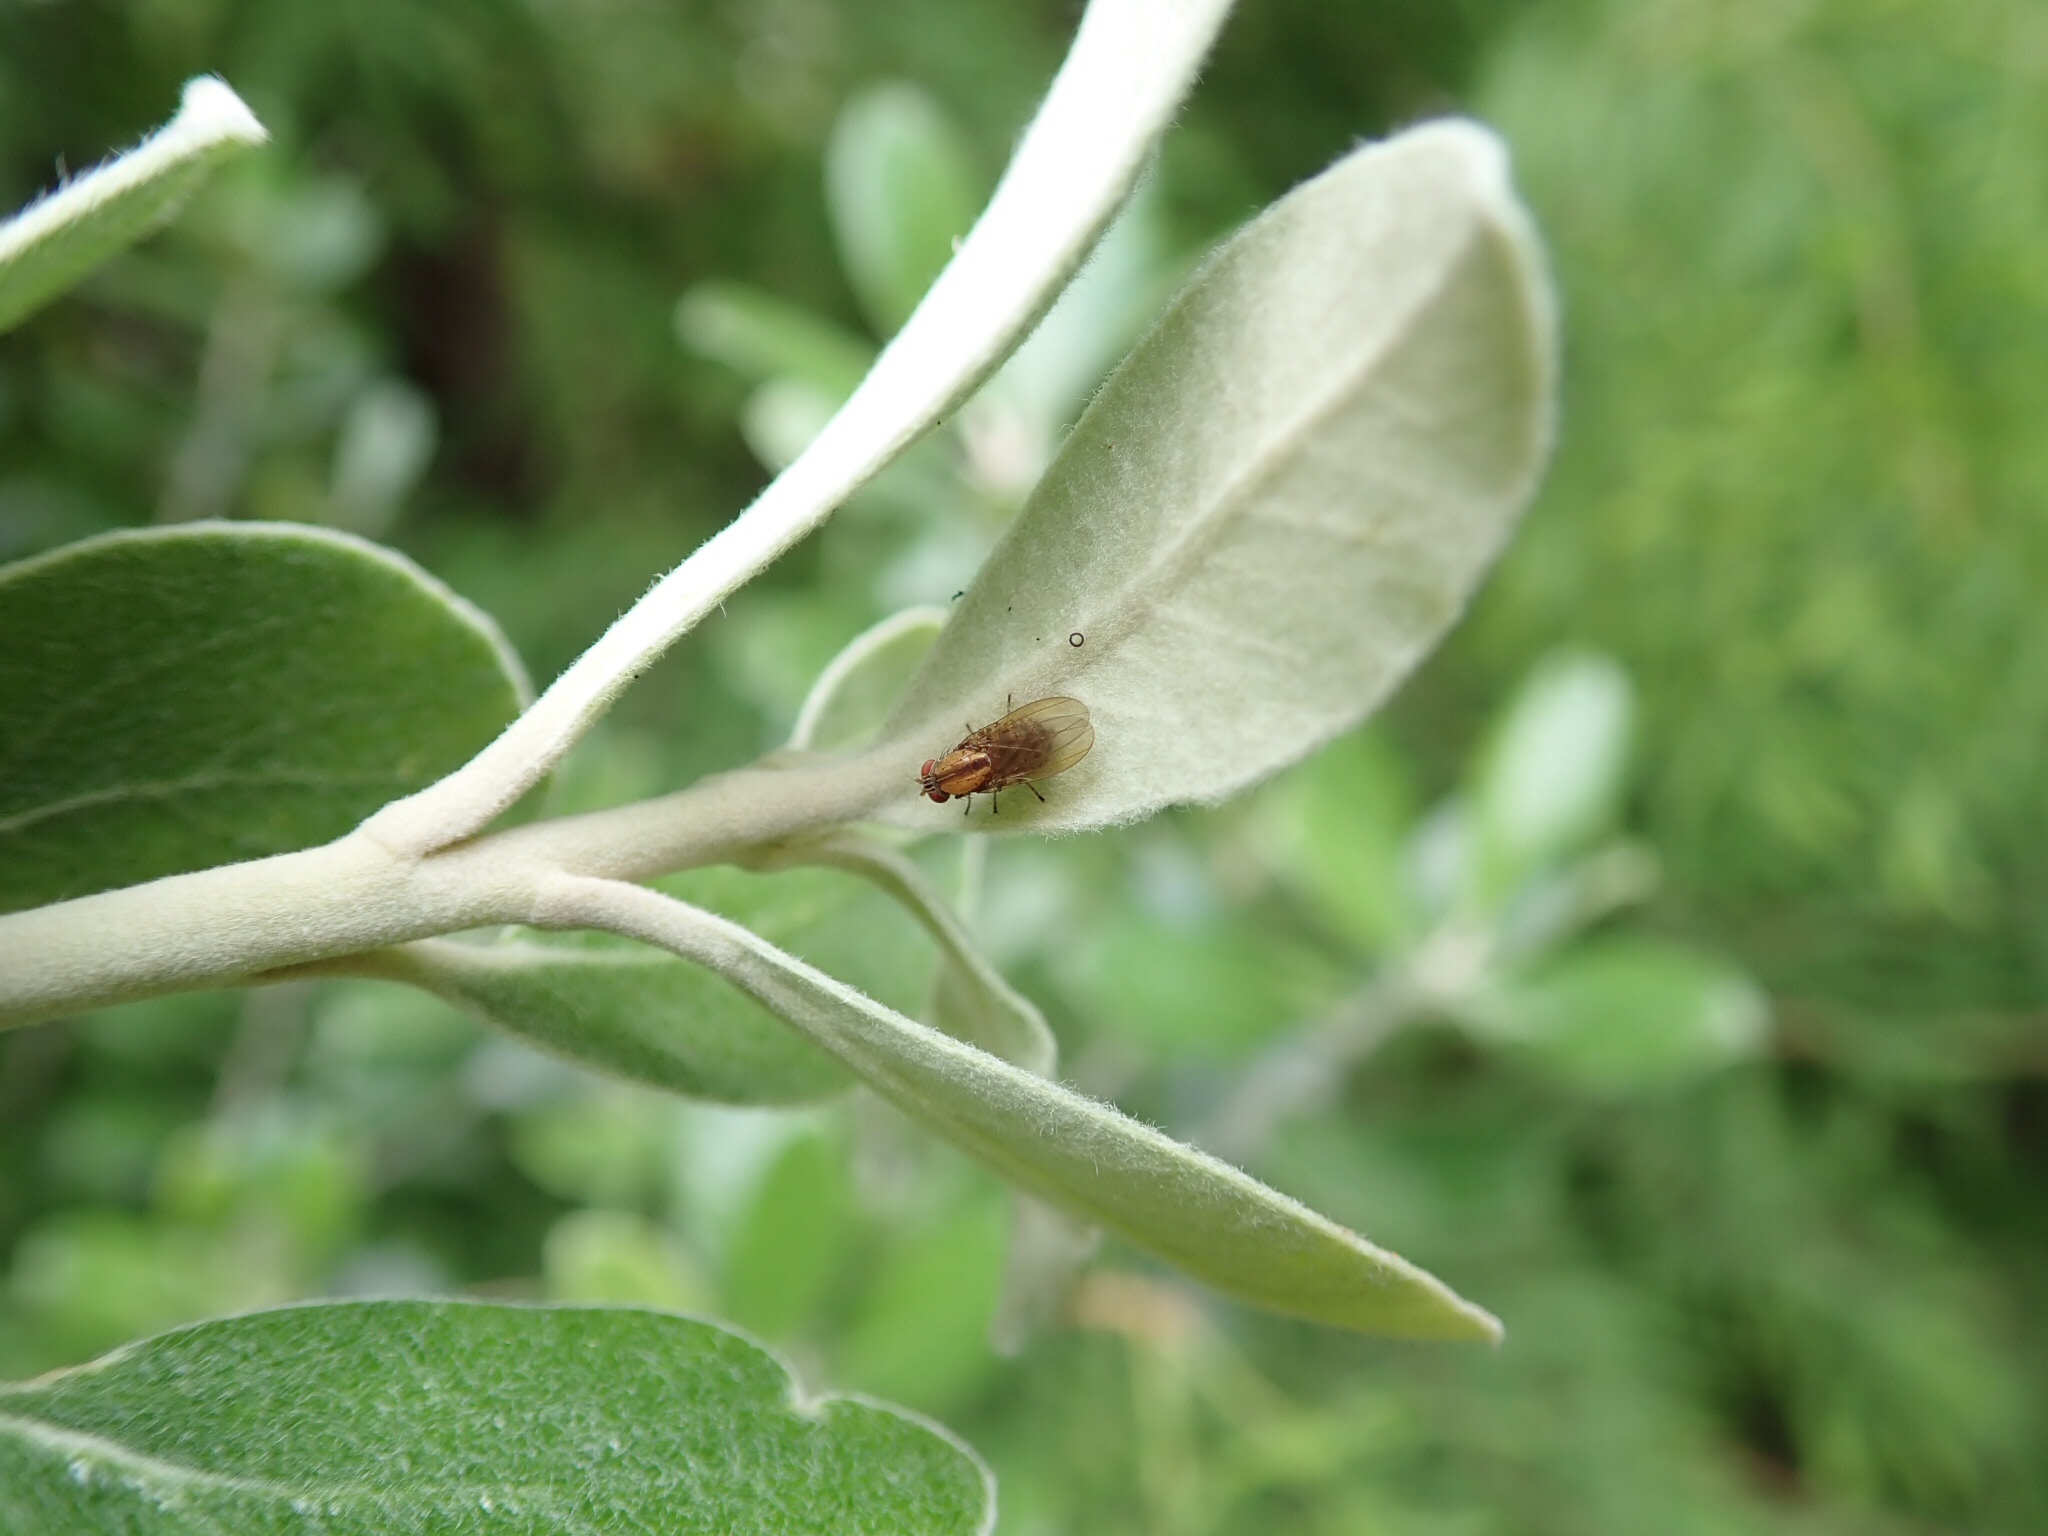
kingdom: Animalia
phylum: Arthropoda
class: Insecta
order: Diptera
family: Lauxaniidae
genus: Sapromyza
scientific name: Sapromyza neozelandica
